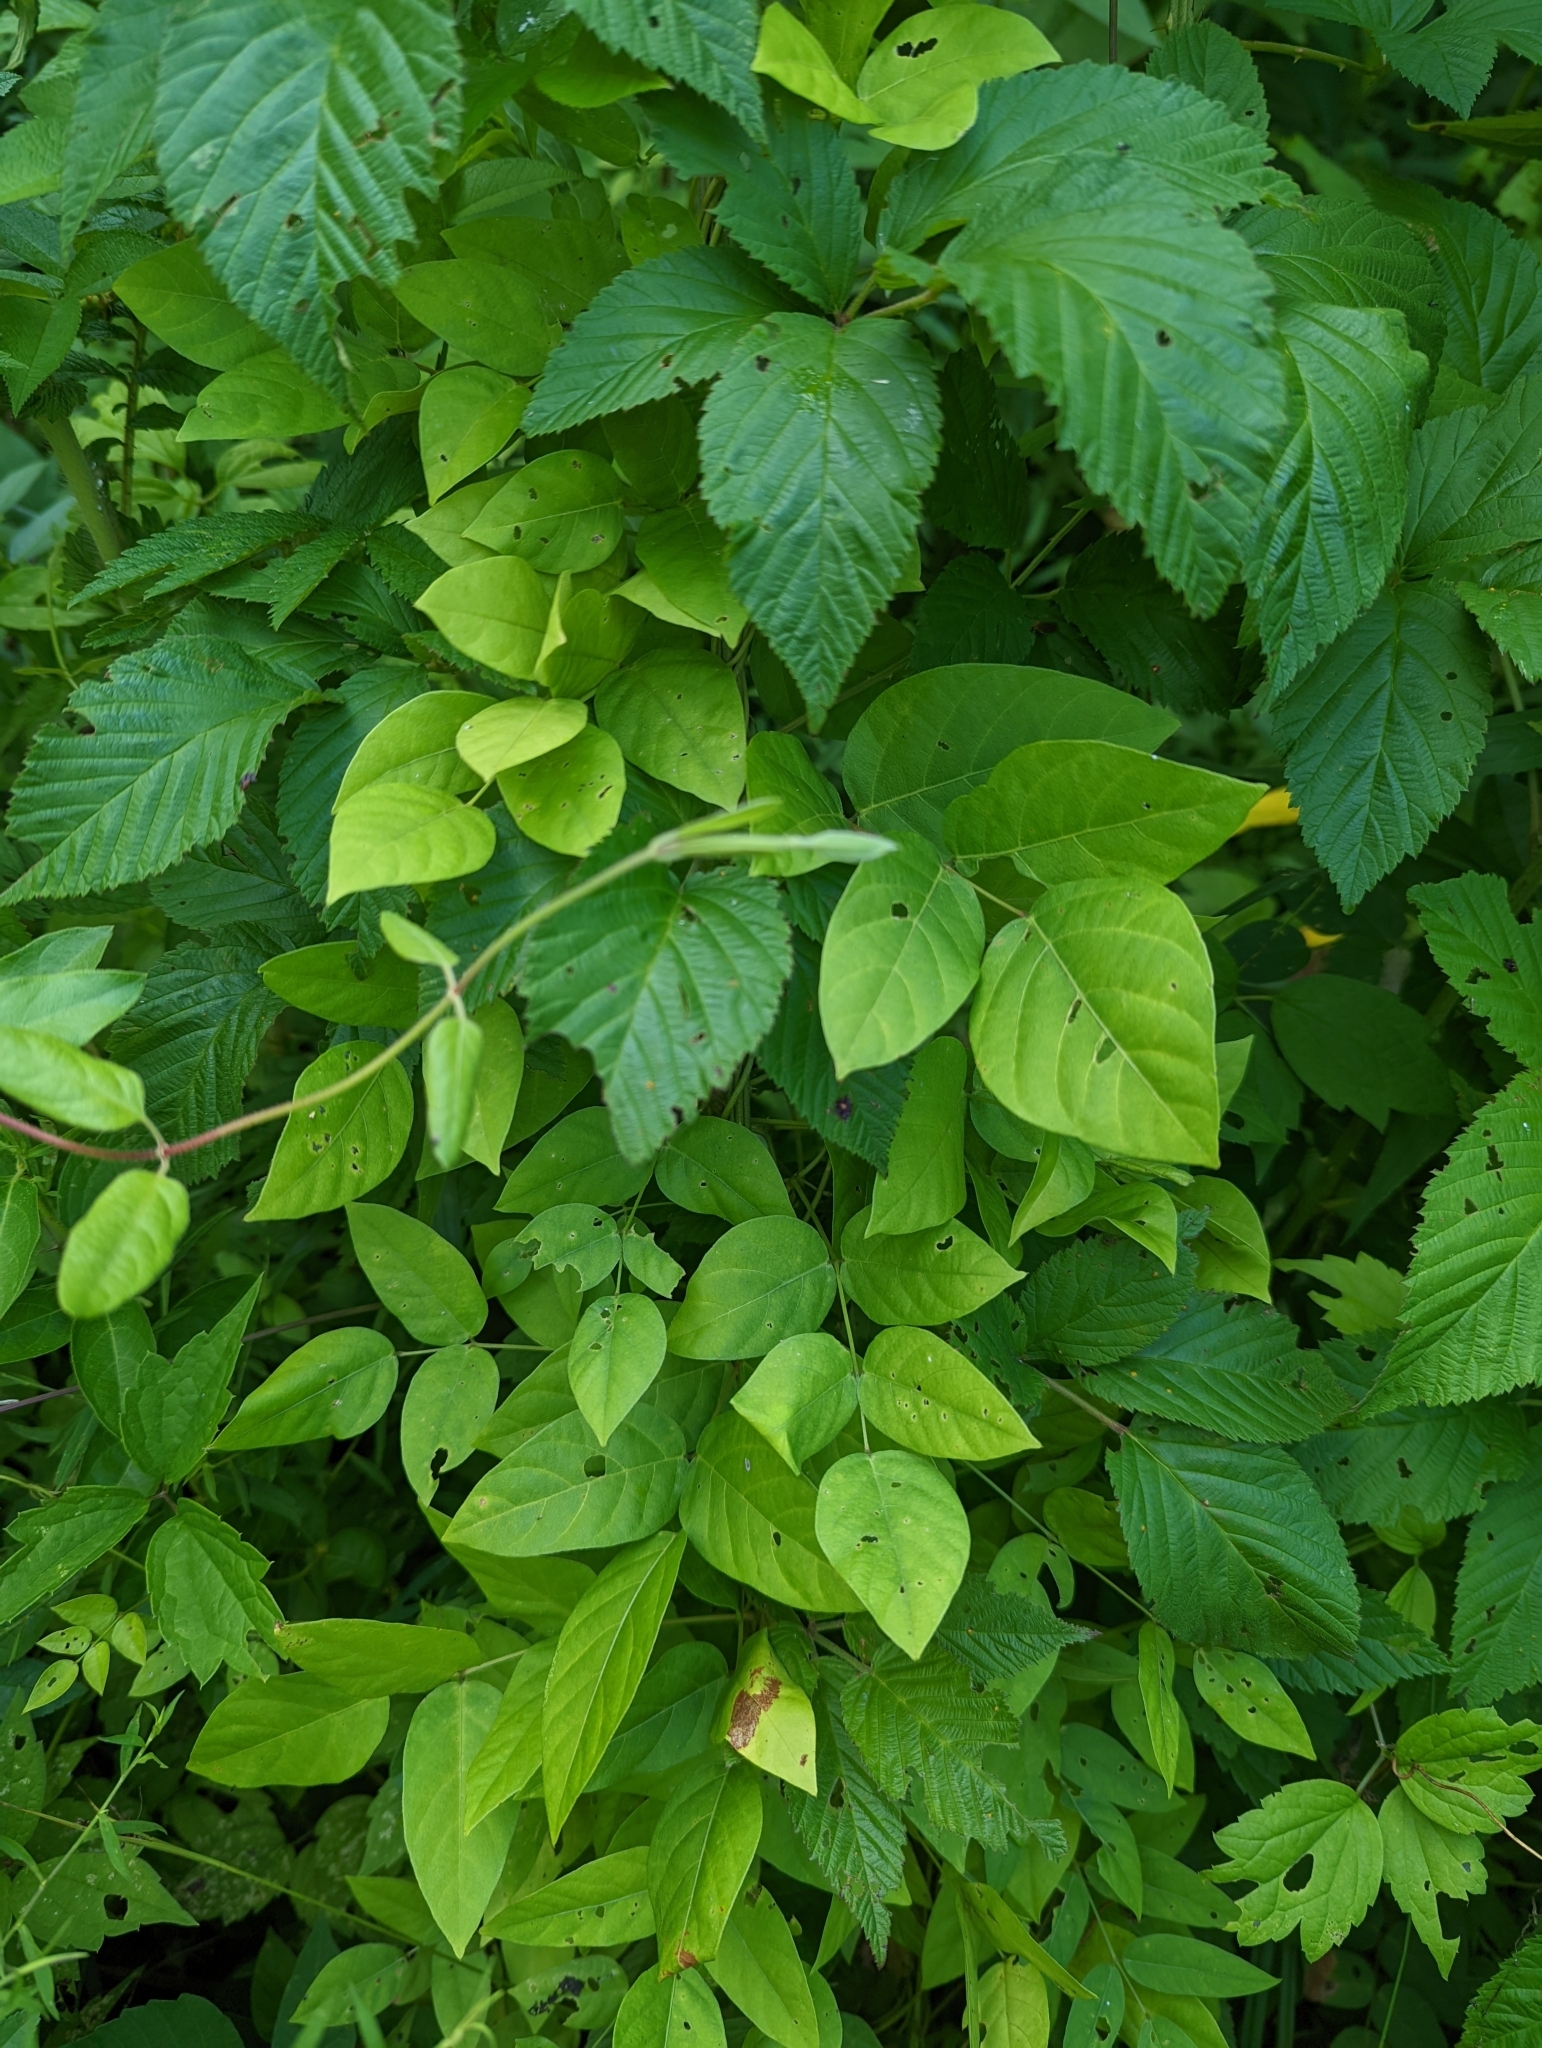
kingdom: Plantae
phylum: Tracheophyta
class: Magnoliopsida
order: Fabales
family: Fabaceae
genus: Apios
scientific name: Apios americana
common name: American potato-bean
